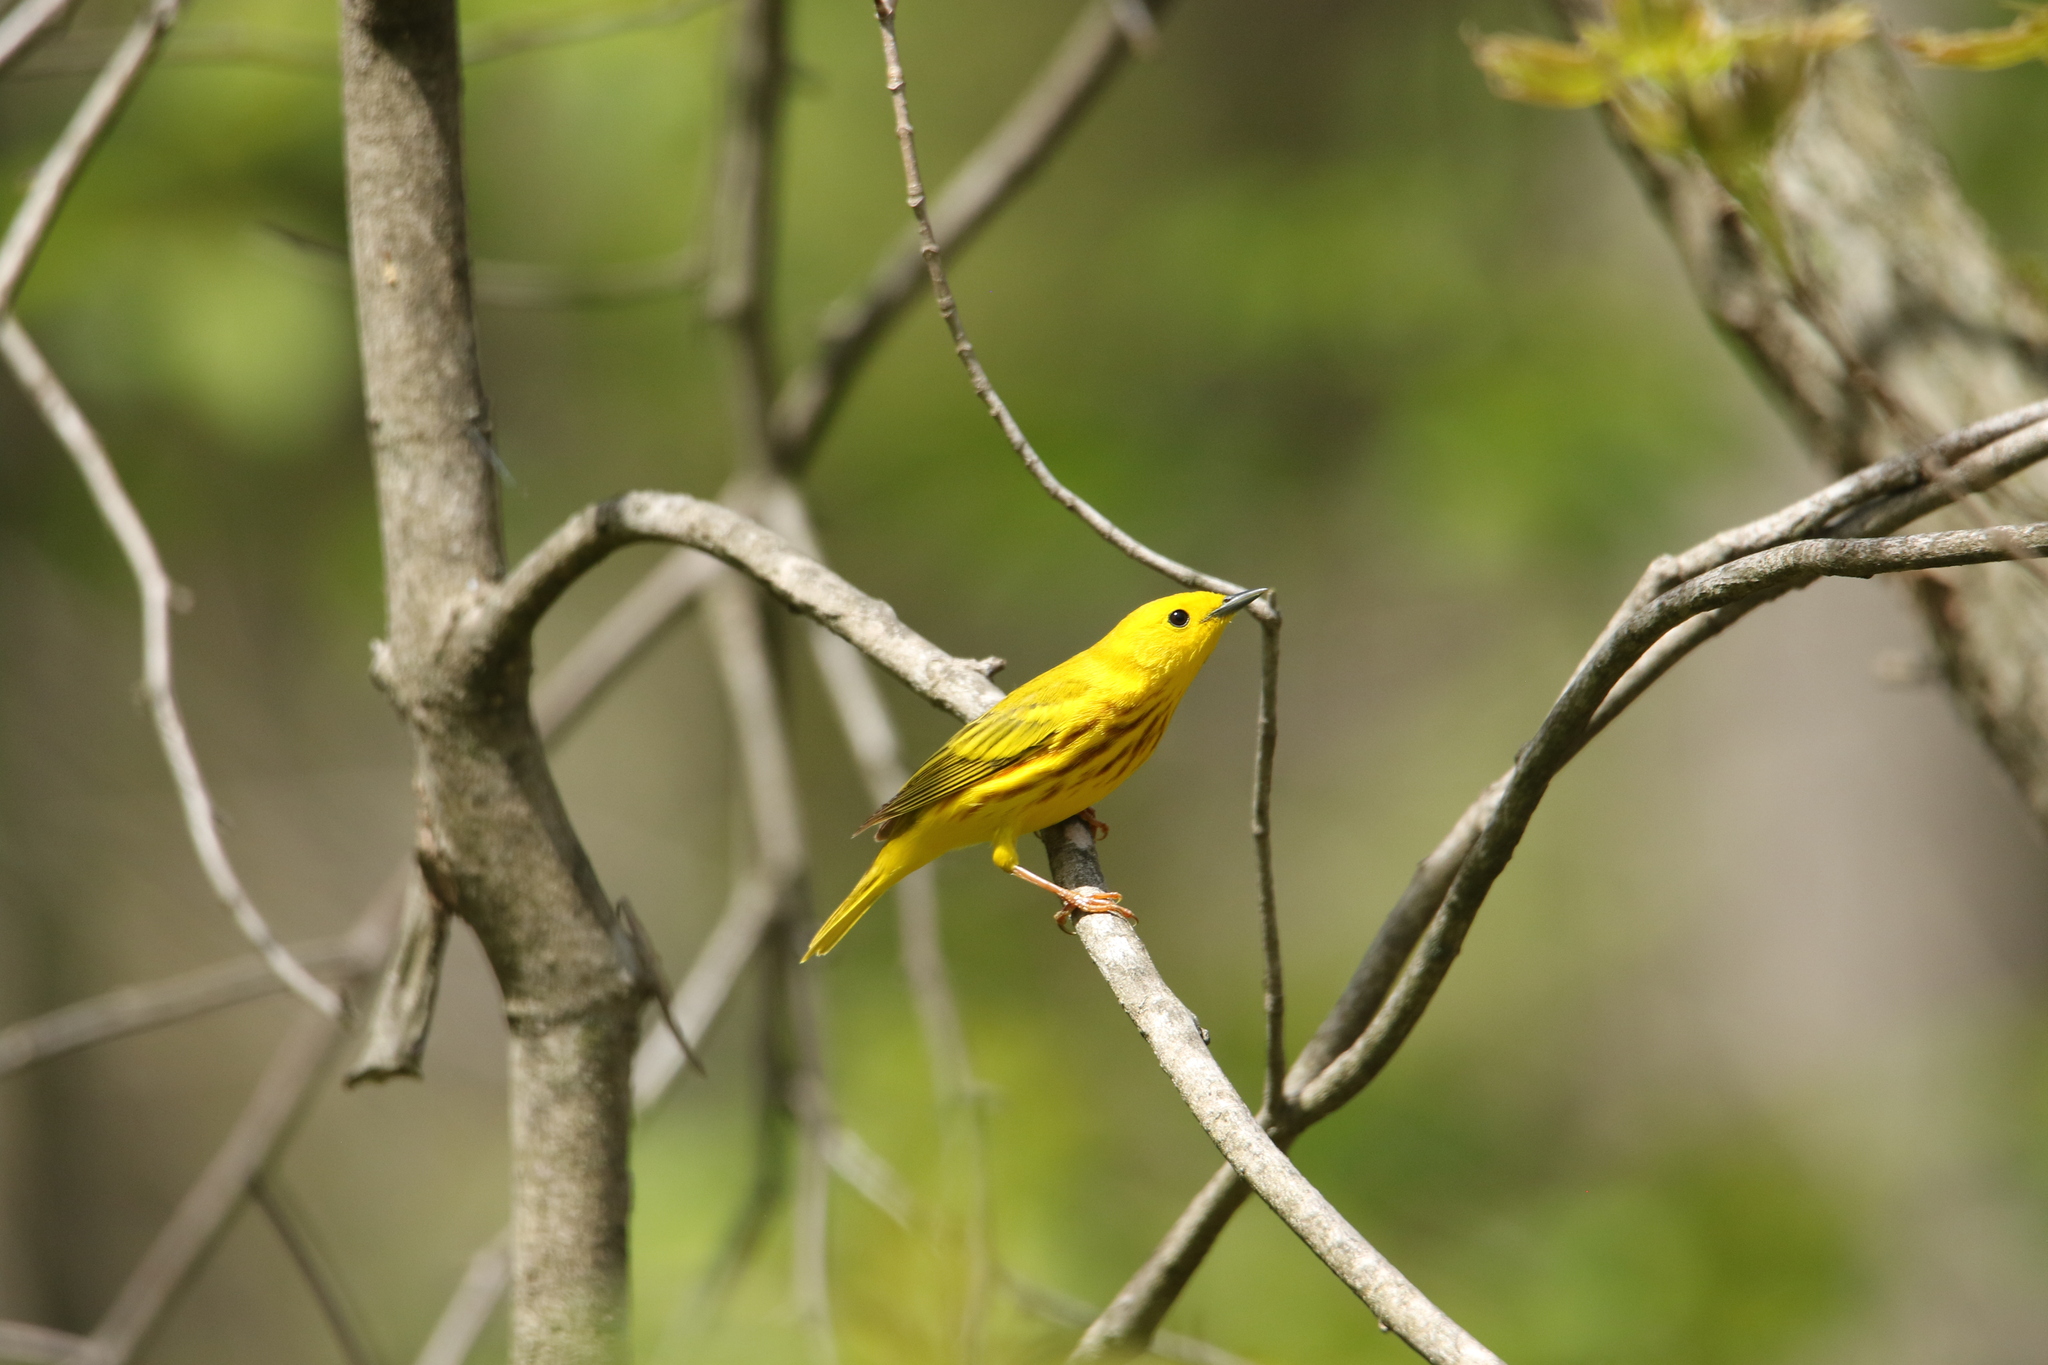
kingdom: Animalia
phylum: Chordata
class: Aves
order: Passeriformes
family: Parulidae
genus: Setophaga
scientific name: Setophaga petechia
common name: Yellow warbler
